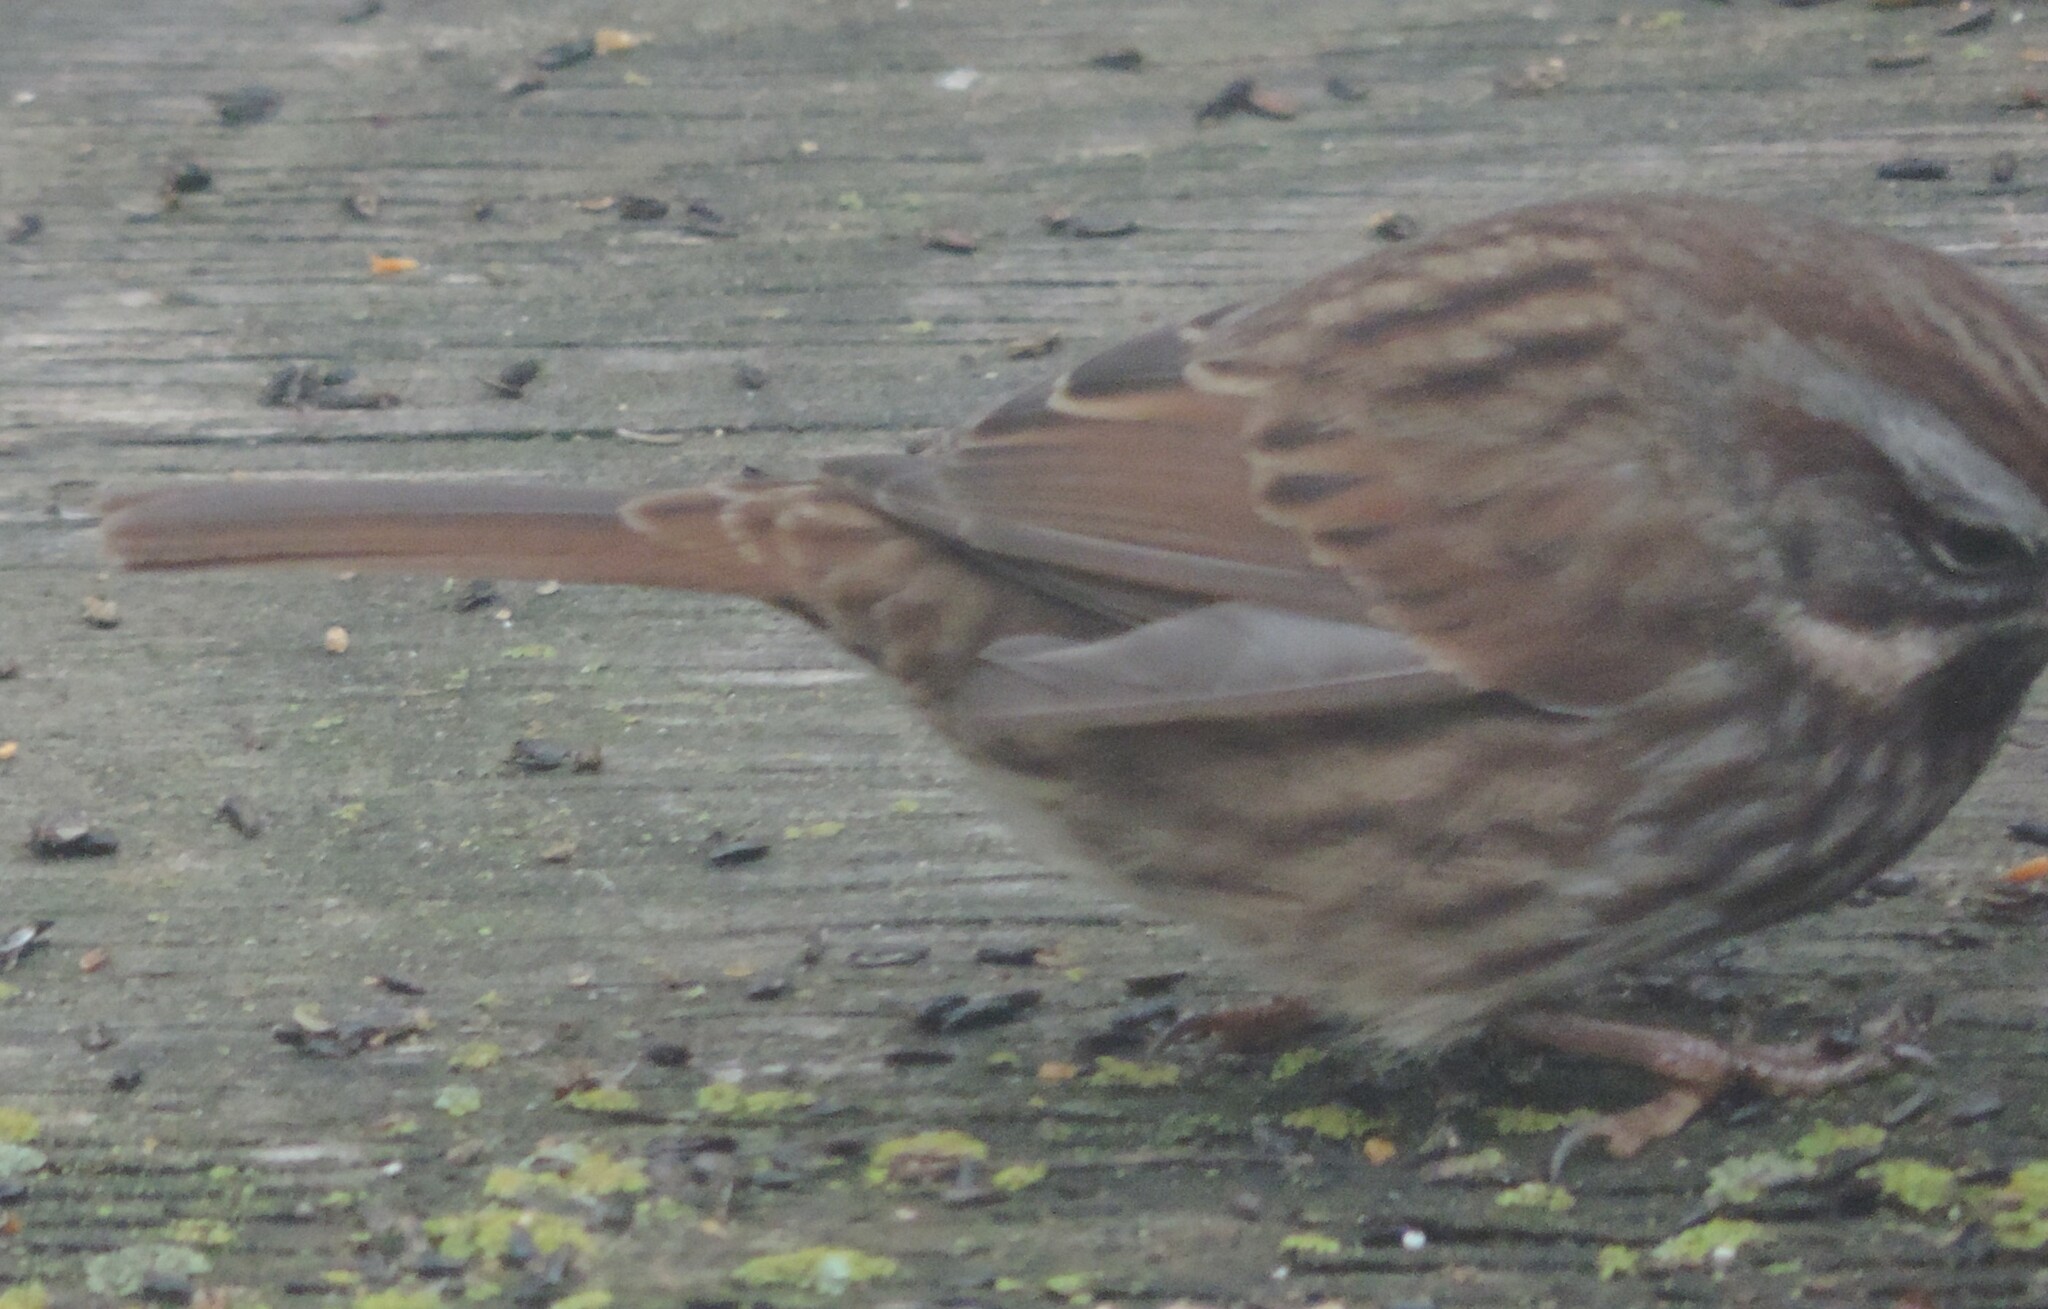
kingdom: Animalia
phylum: Chordata
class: Aves
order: Passeriformes
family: Passerellidae
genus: Melospiza
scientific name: Melospiza melodia
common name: Song sparrow
